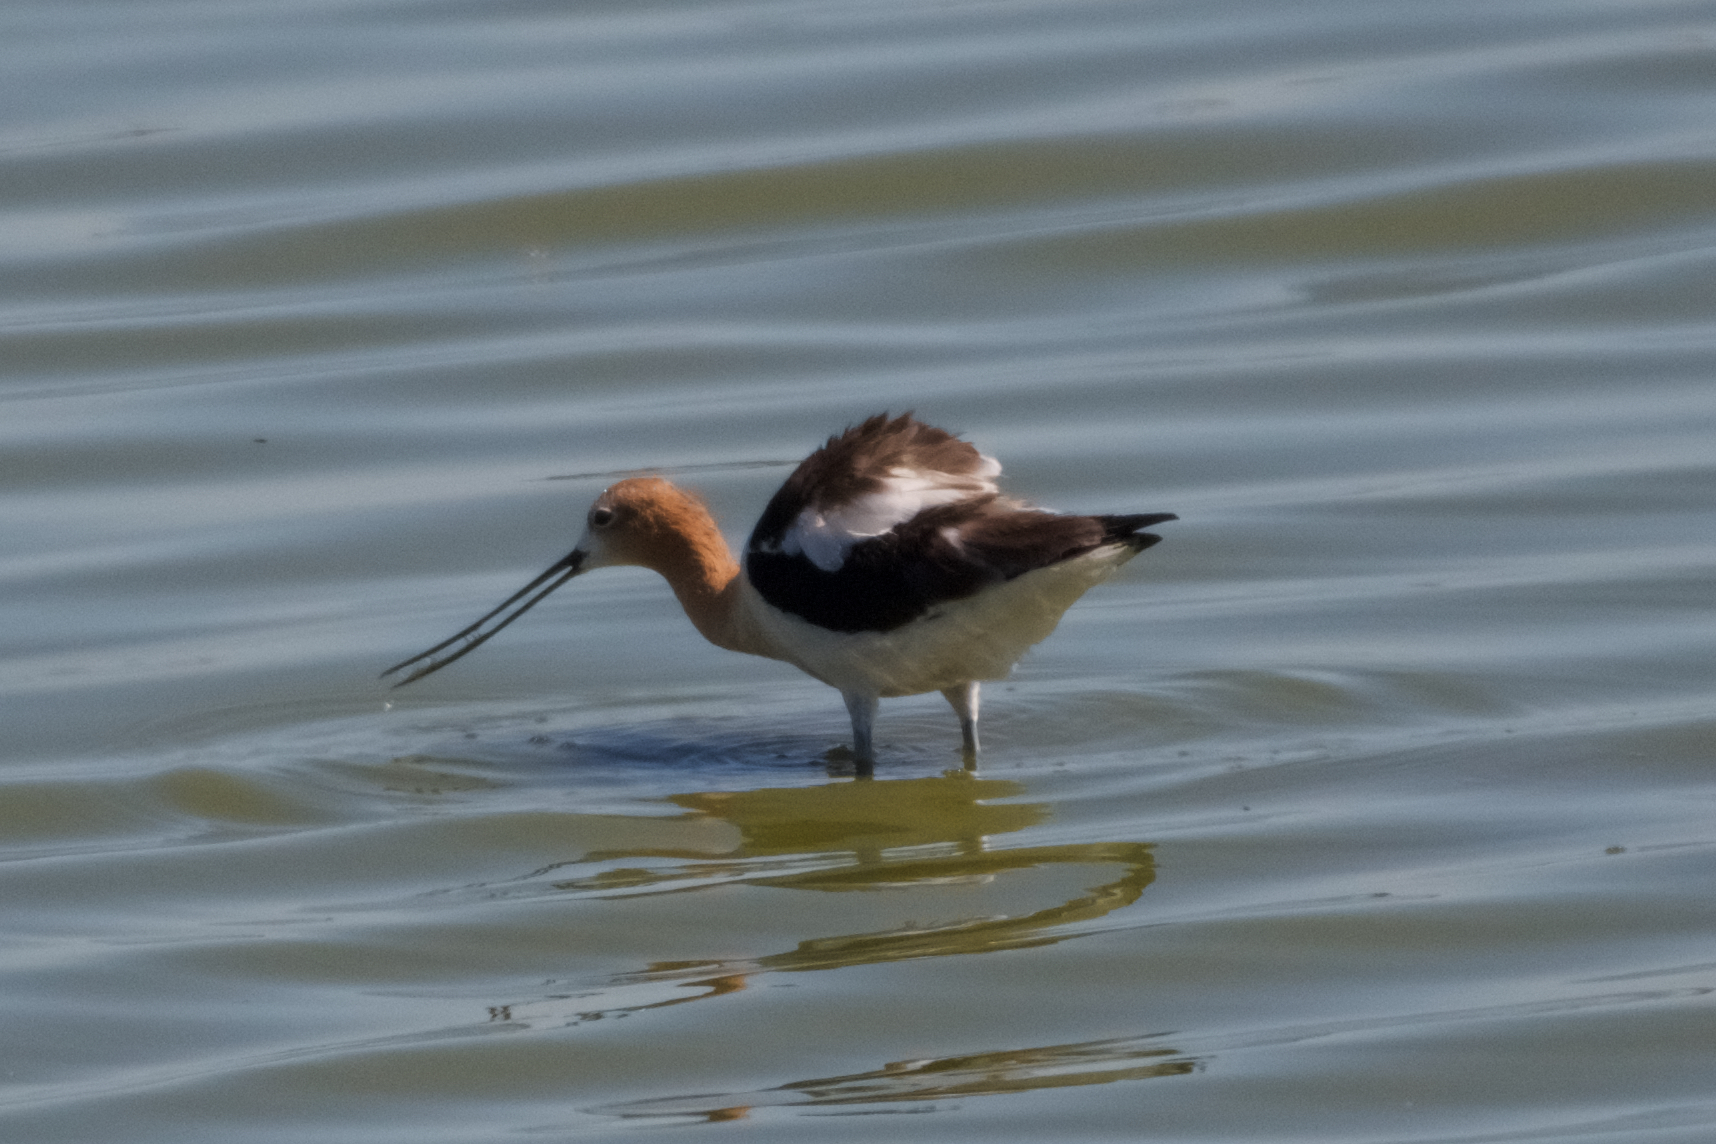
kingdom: Animalia
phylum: Chordata
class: Aves
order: Charadriiformes
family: Recurvirostridae
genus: Recurvirostra
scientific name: Recurvirostra americana
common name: American avocet
